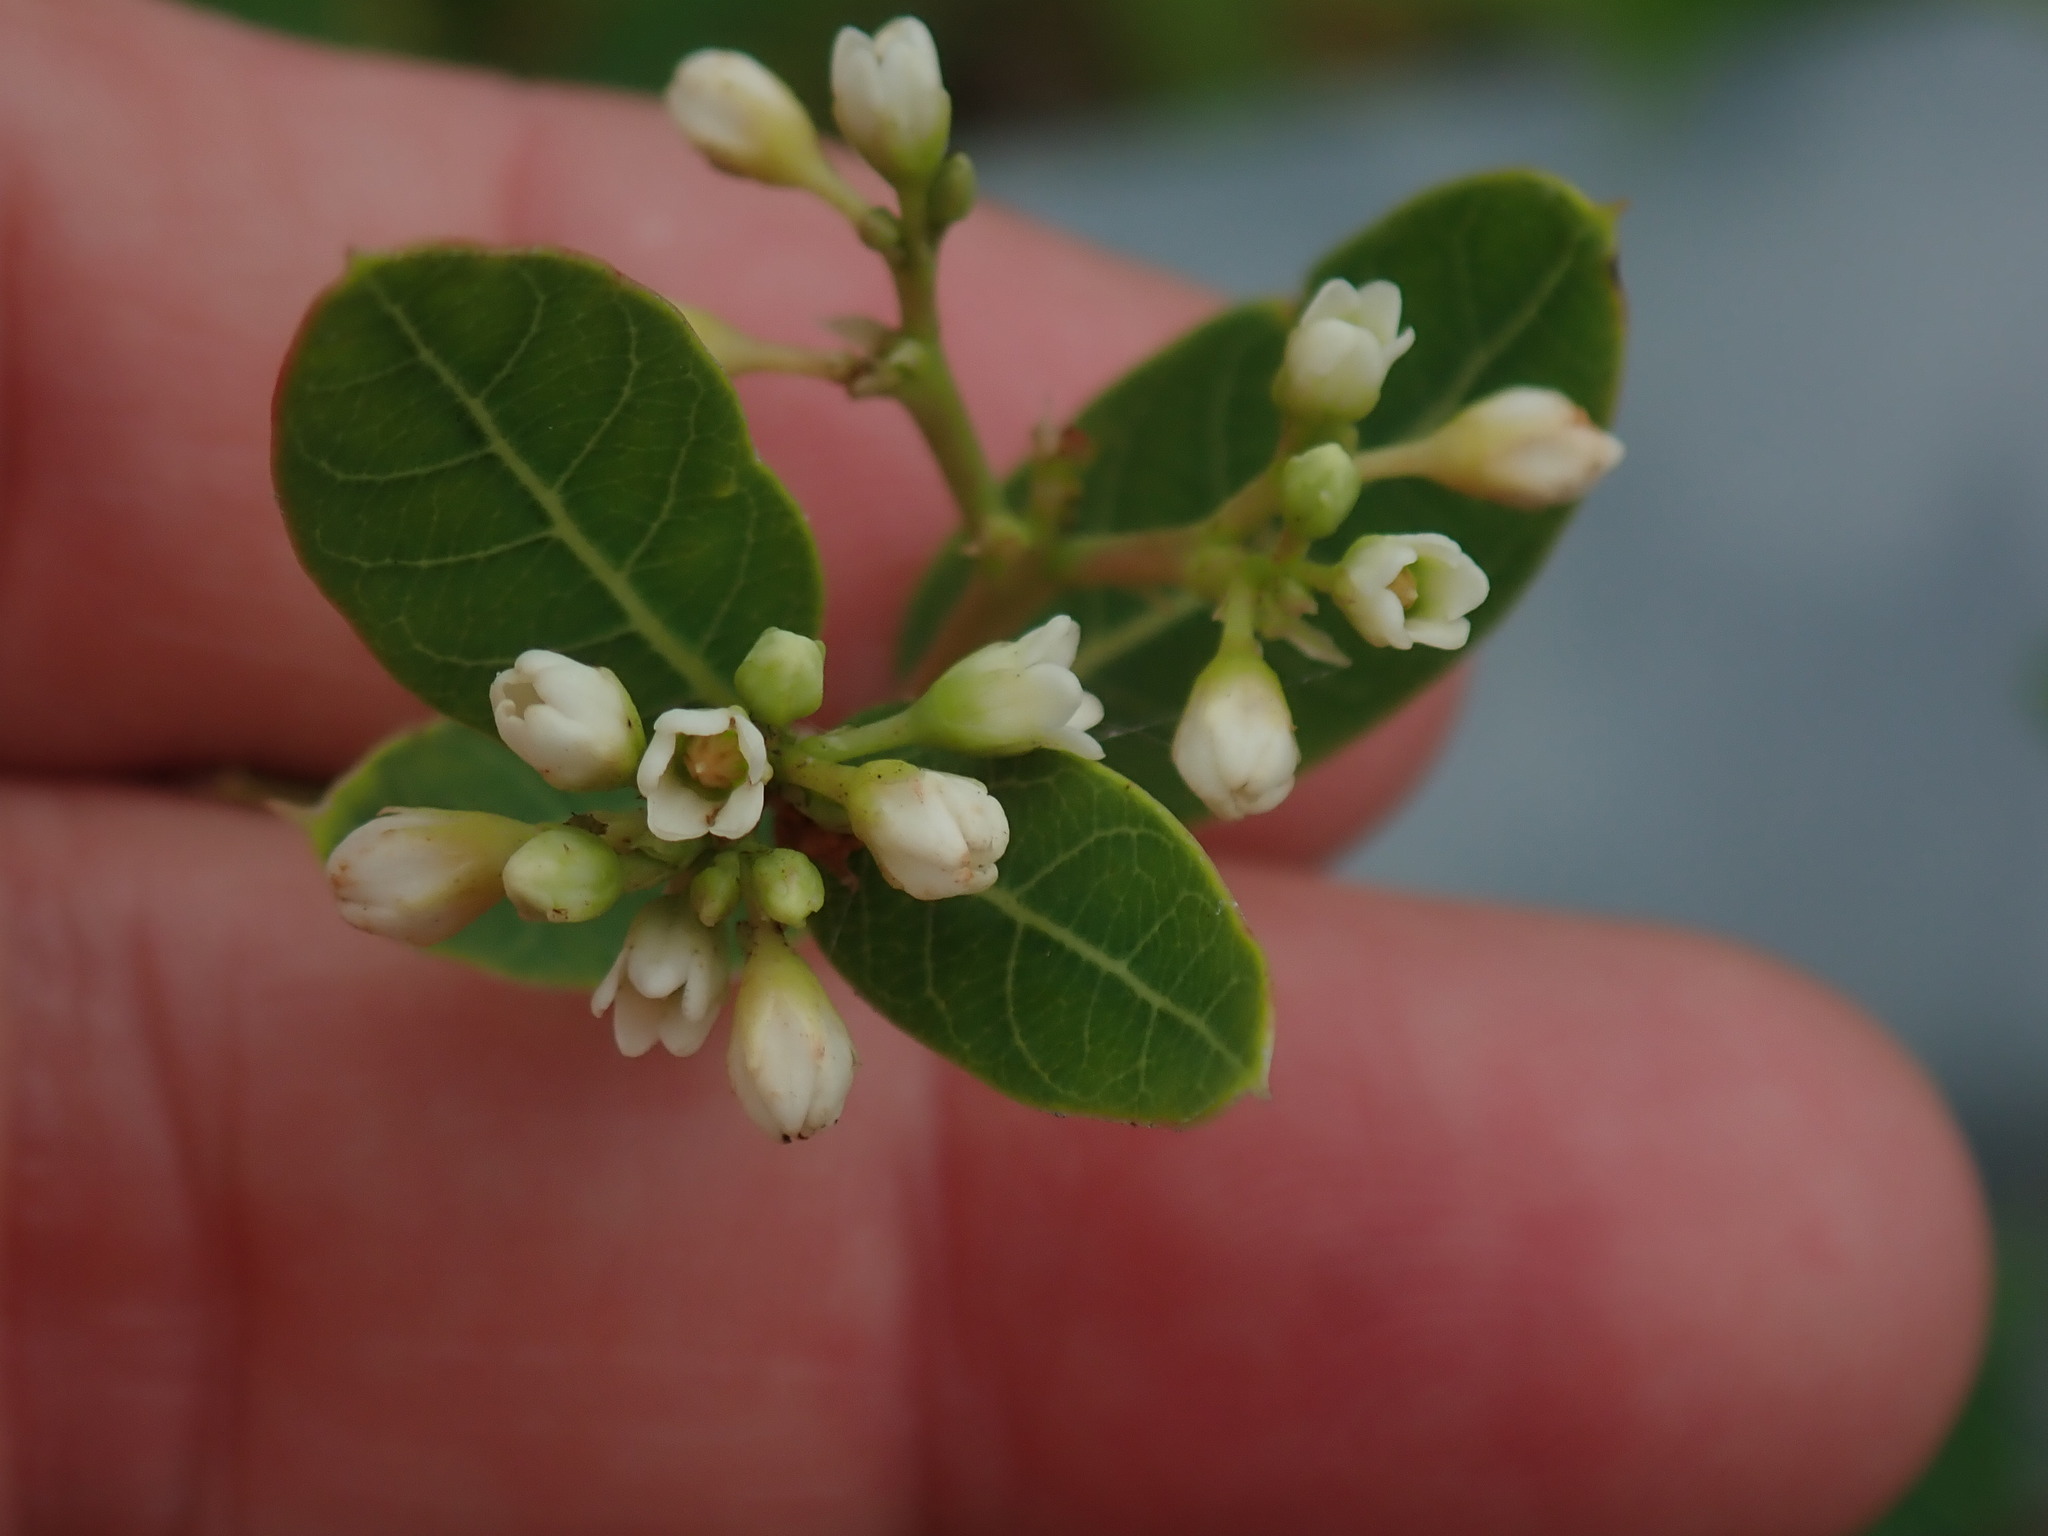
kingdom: Plantae
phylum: Tracheophyta
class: Magnoliopsida
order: Gentianales
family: Apocynaceae
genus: Apocynum
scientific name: Apocynum cannabinum
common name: Hemp dogbane
